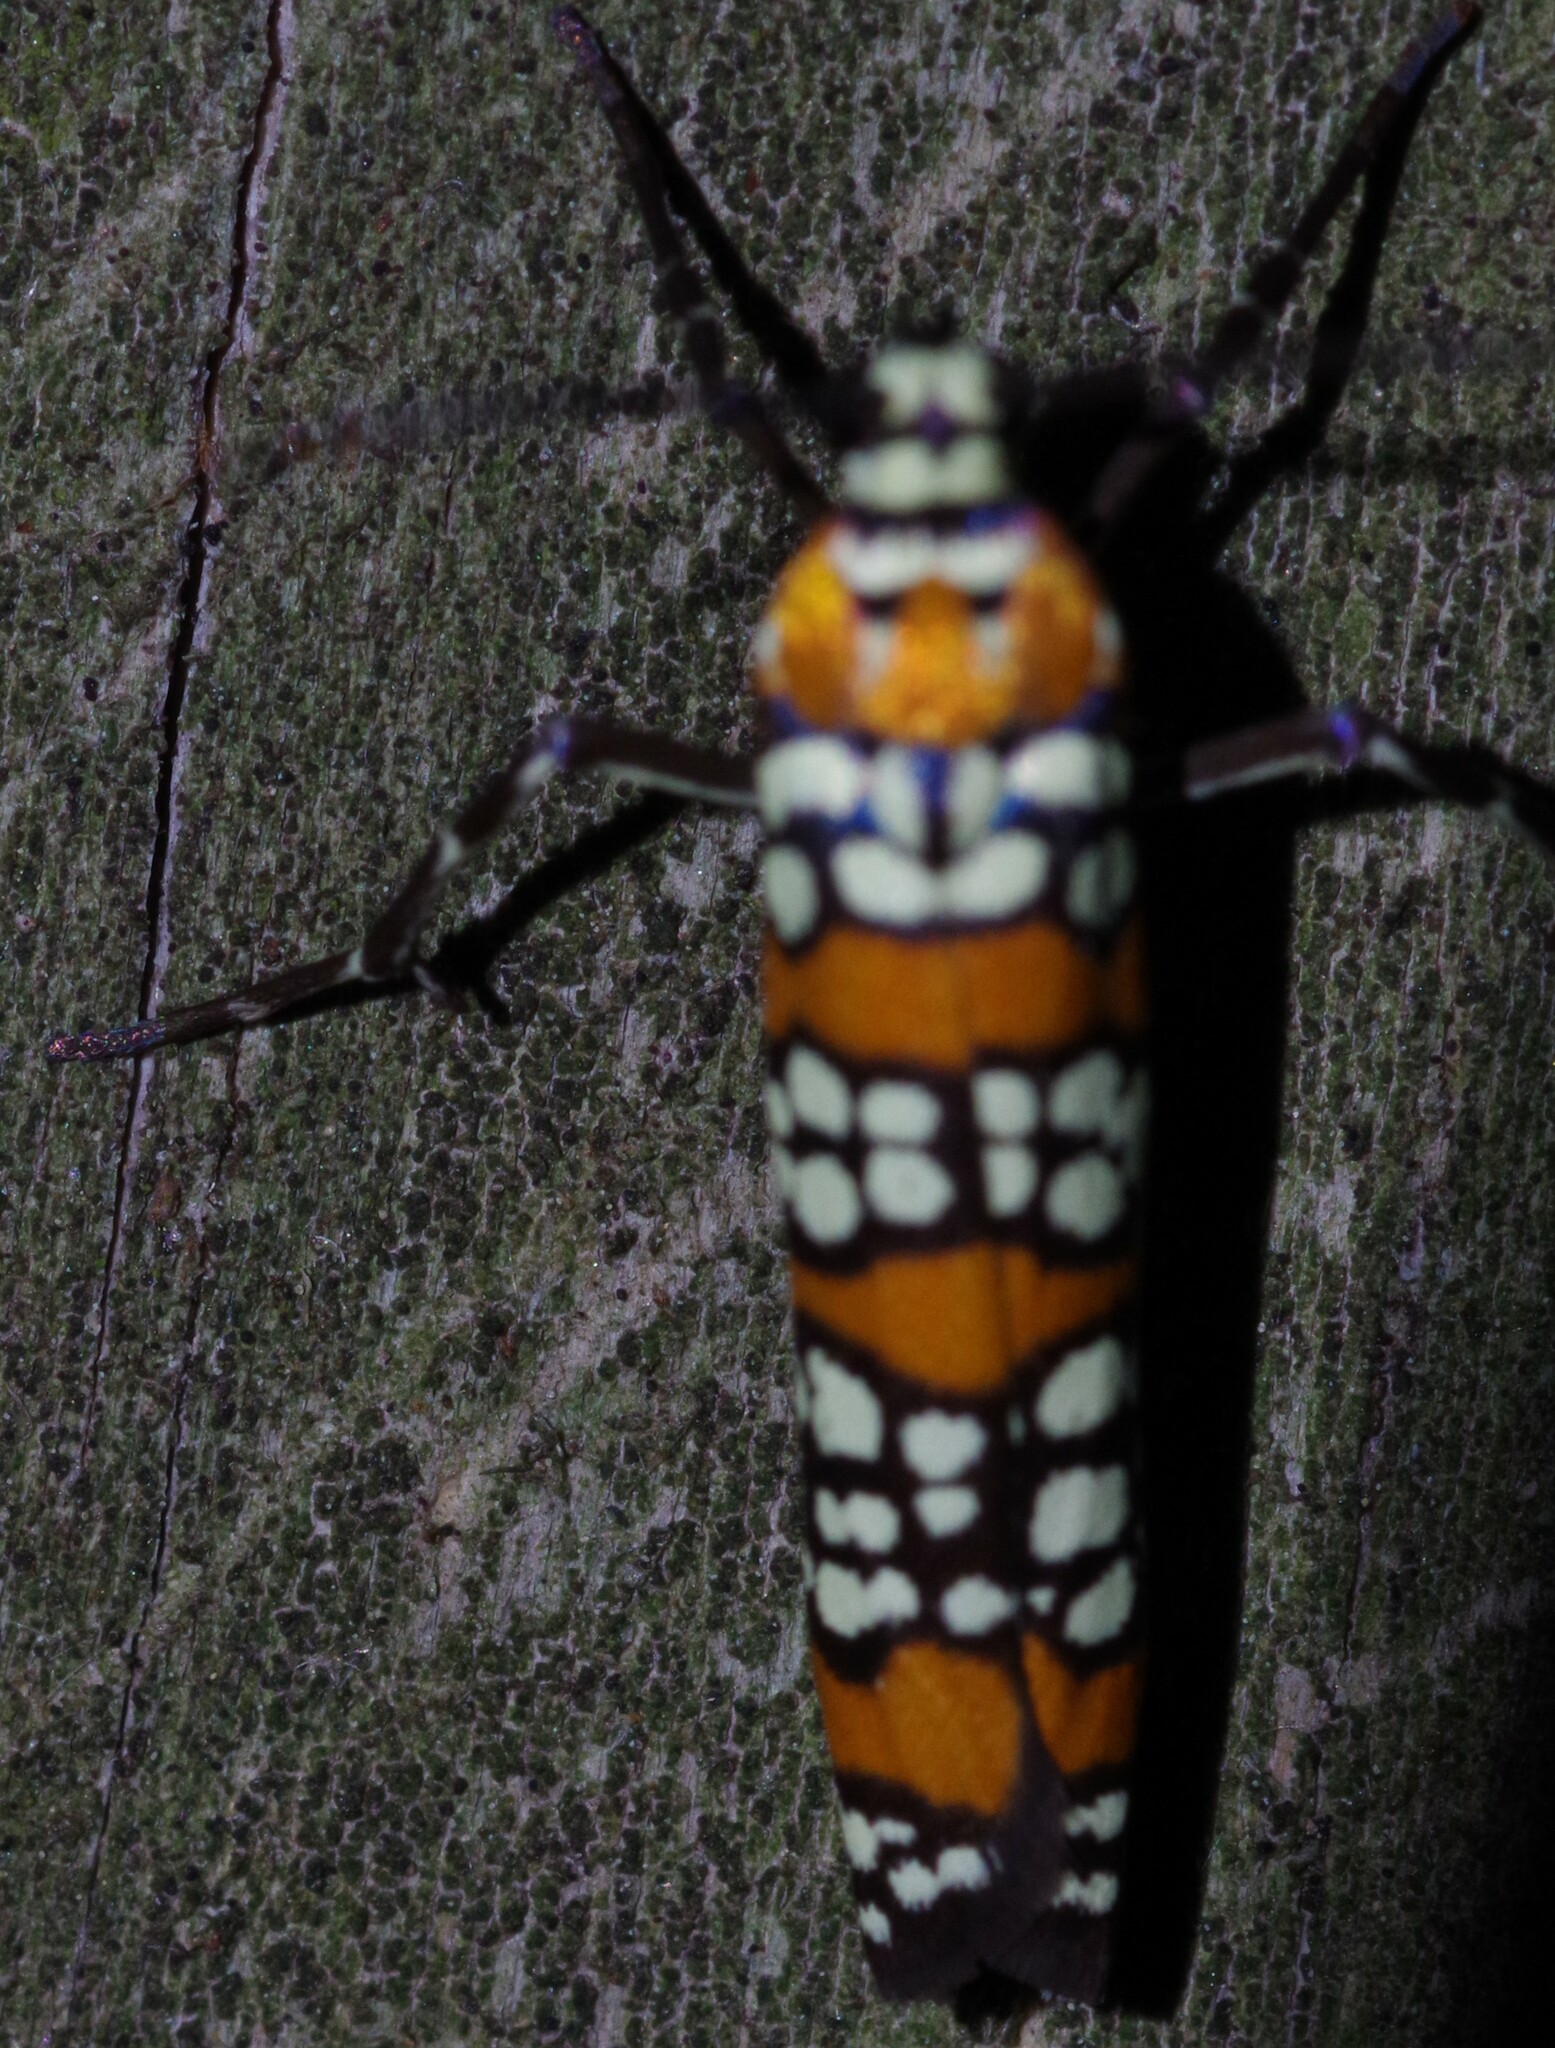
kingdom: Animalia
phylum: Arthropoda
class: Insecta
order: Lepidoptera
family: Attevidae
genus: Atteva
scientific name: Atteva punctella
